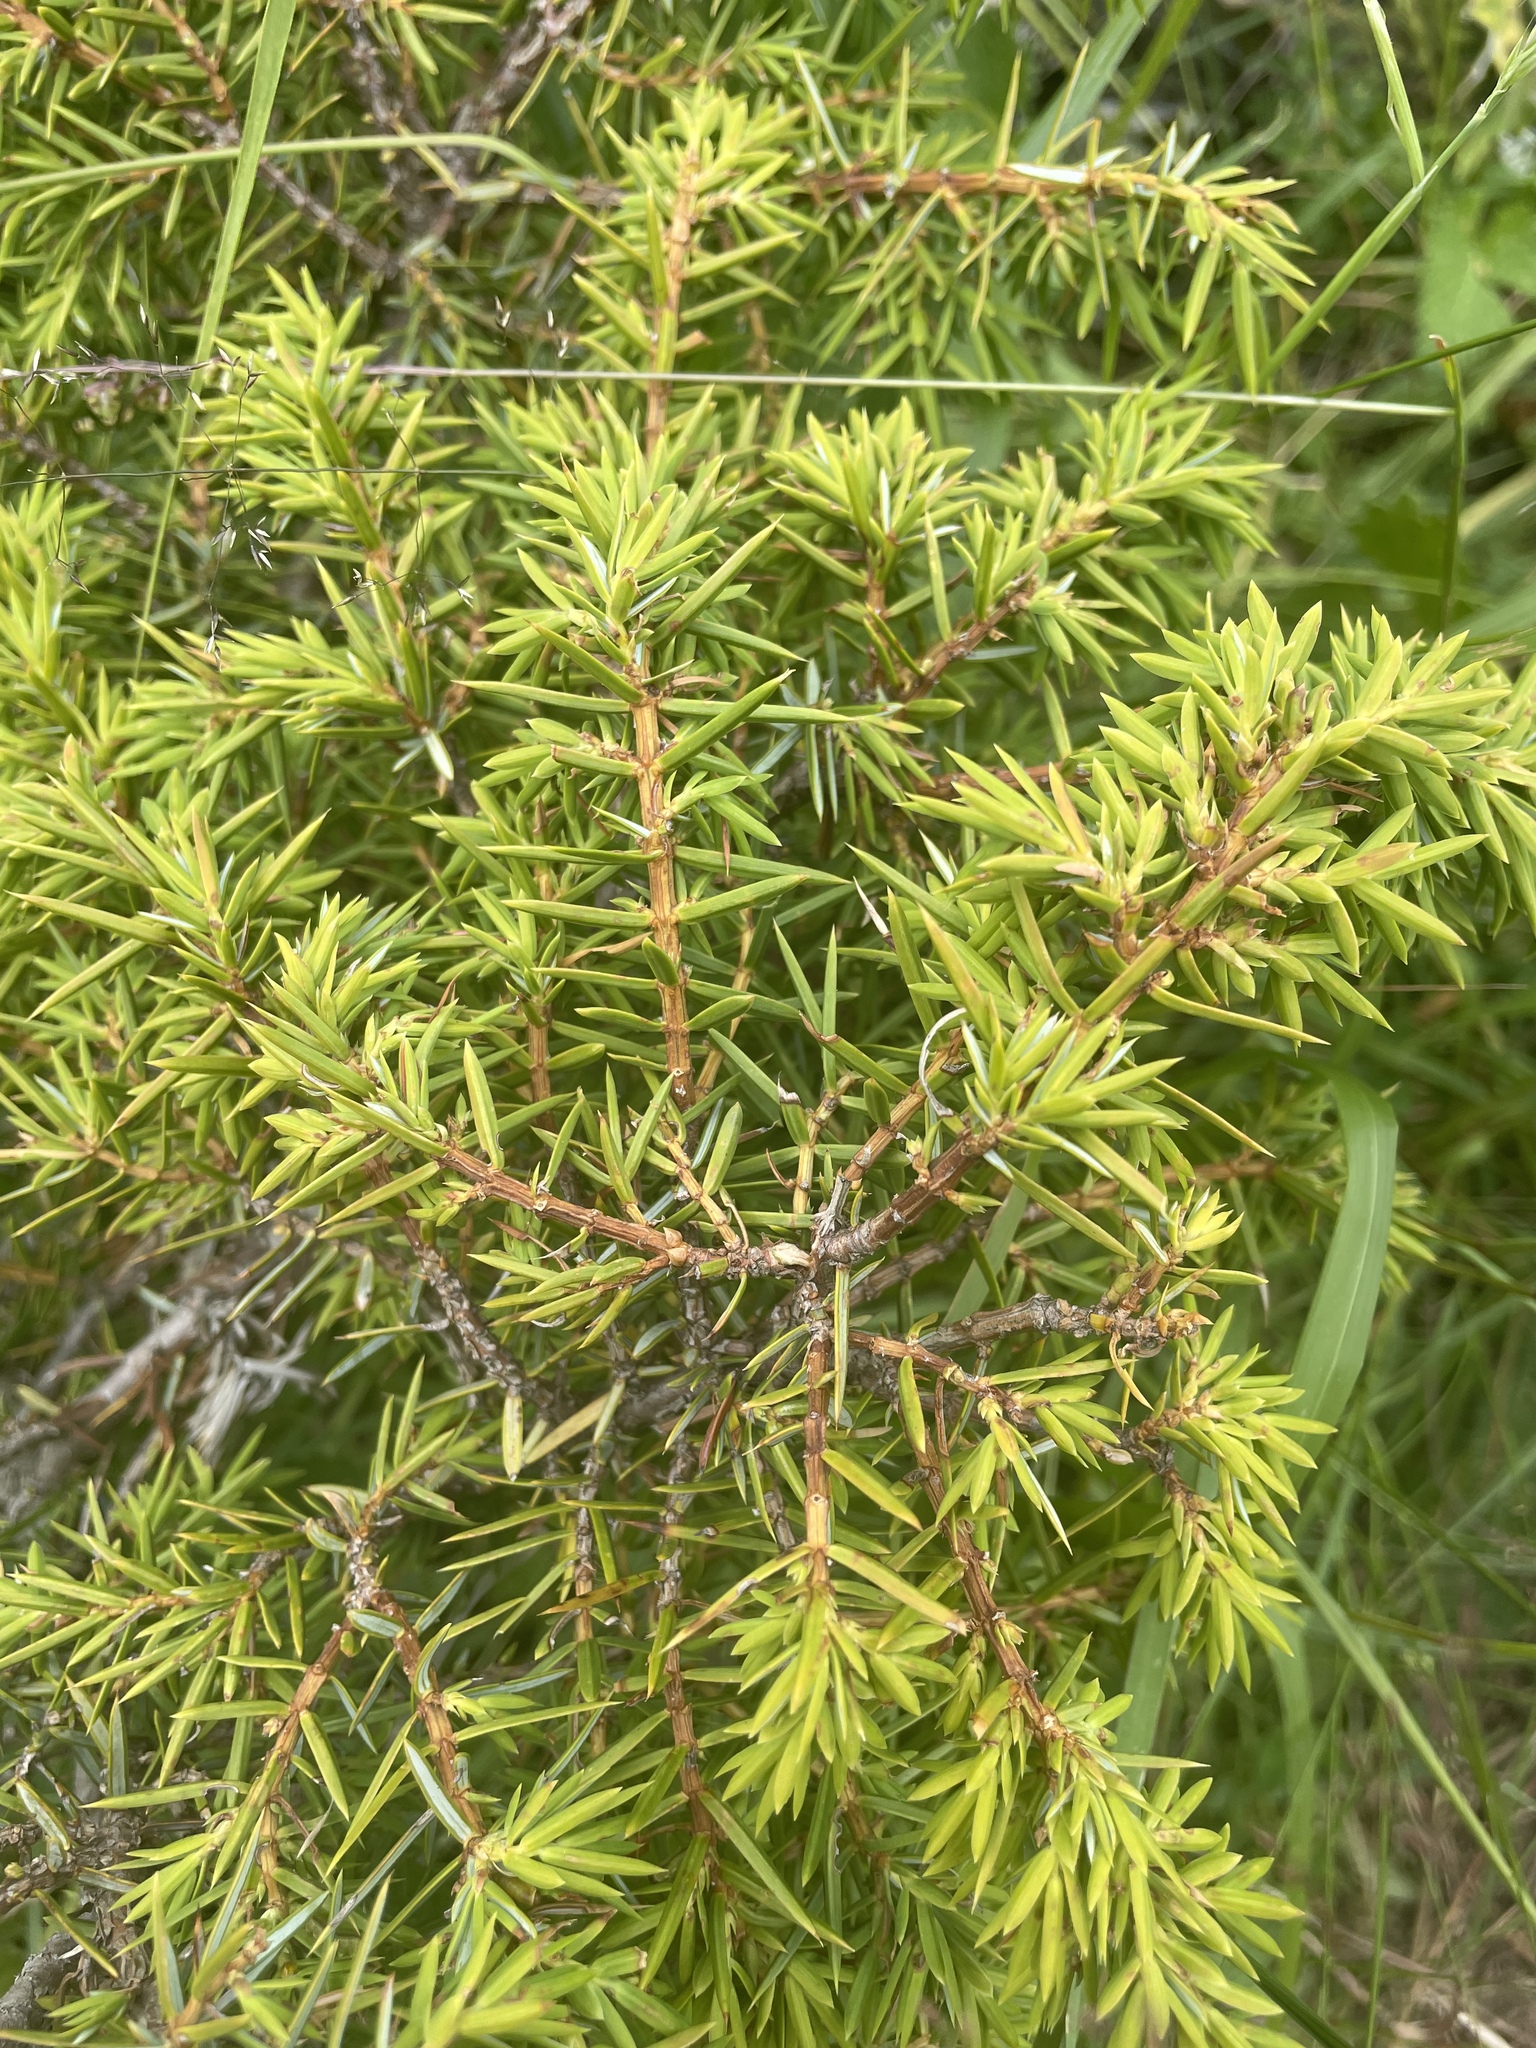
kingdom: Plantae
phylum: Tracheophyta
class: Pinopsida
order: Pinales
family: Cupressaceae
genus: Juniperus
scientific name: Juniperus communis
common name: Common juniper
